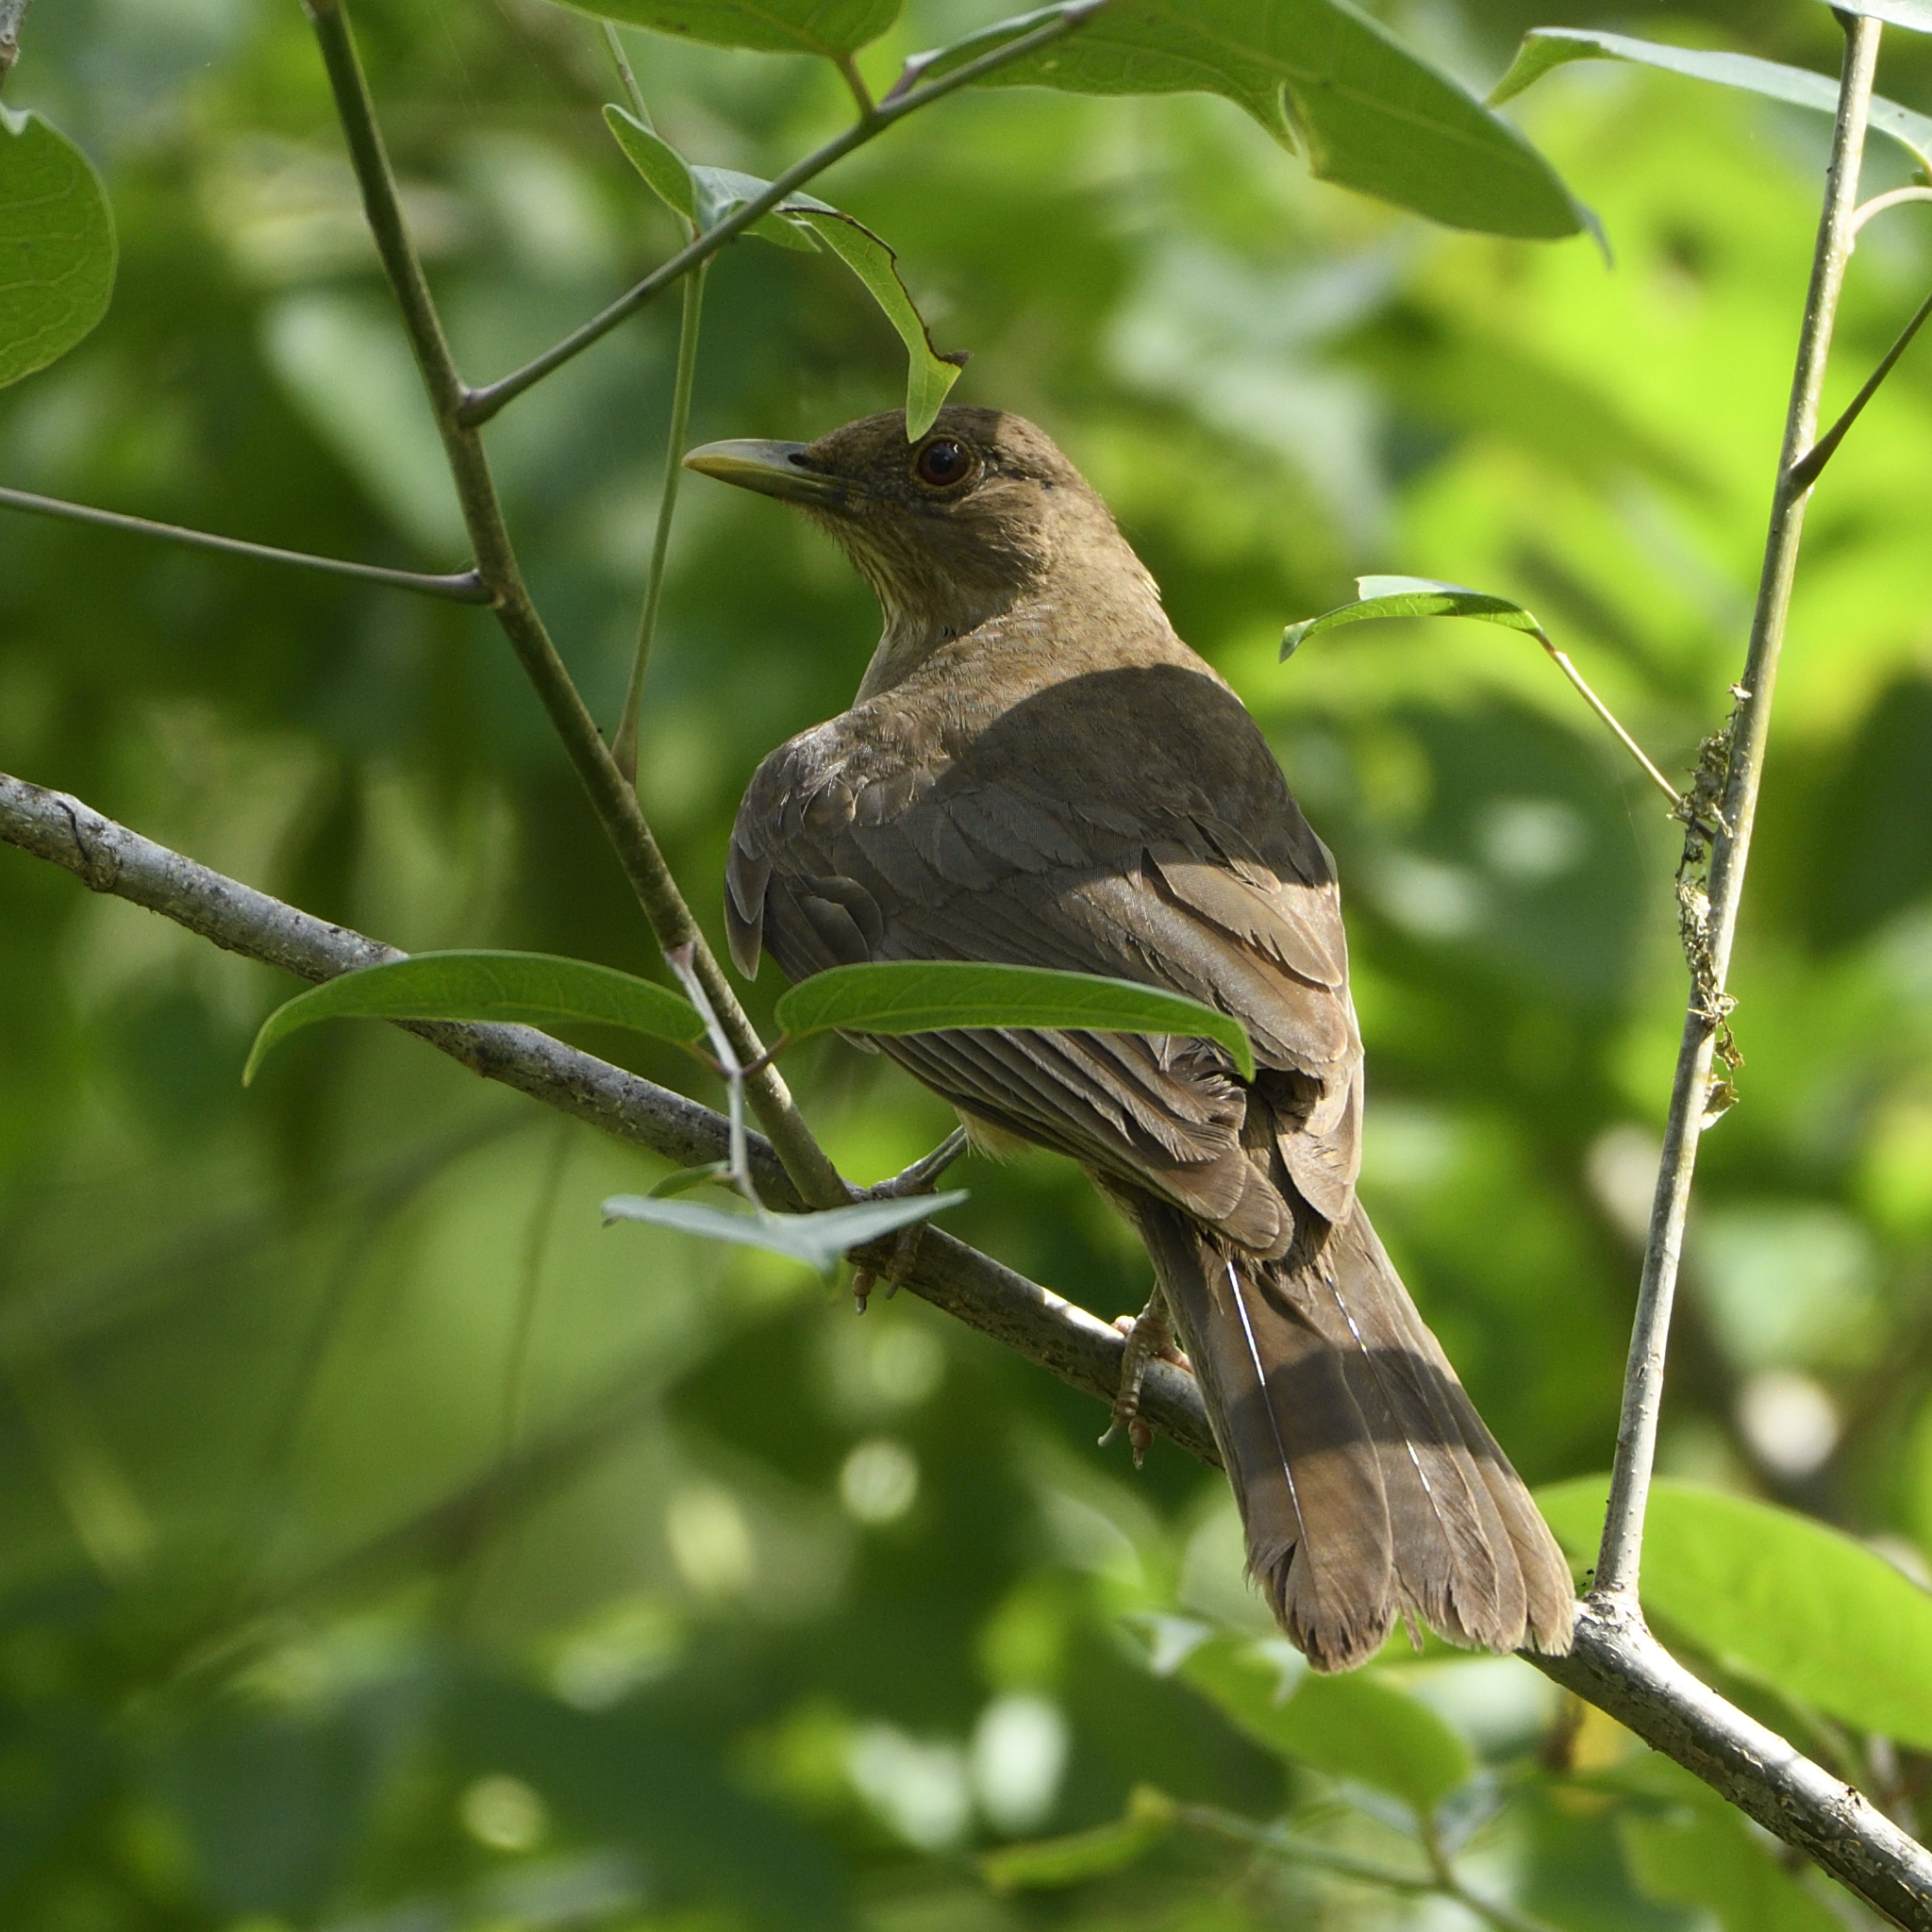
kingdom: Animalia
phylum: Chordata
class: Aves
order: Passeriformes
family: Turdidae
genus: Turdus
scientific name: Turdus grayi
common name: Clay-colored thrush
